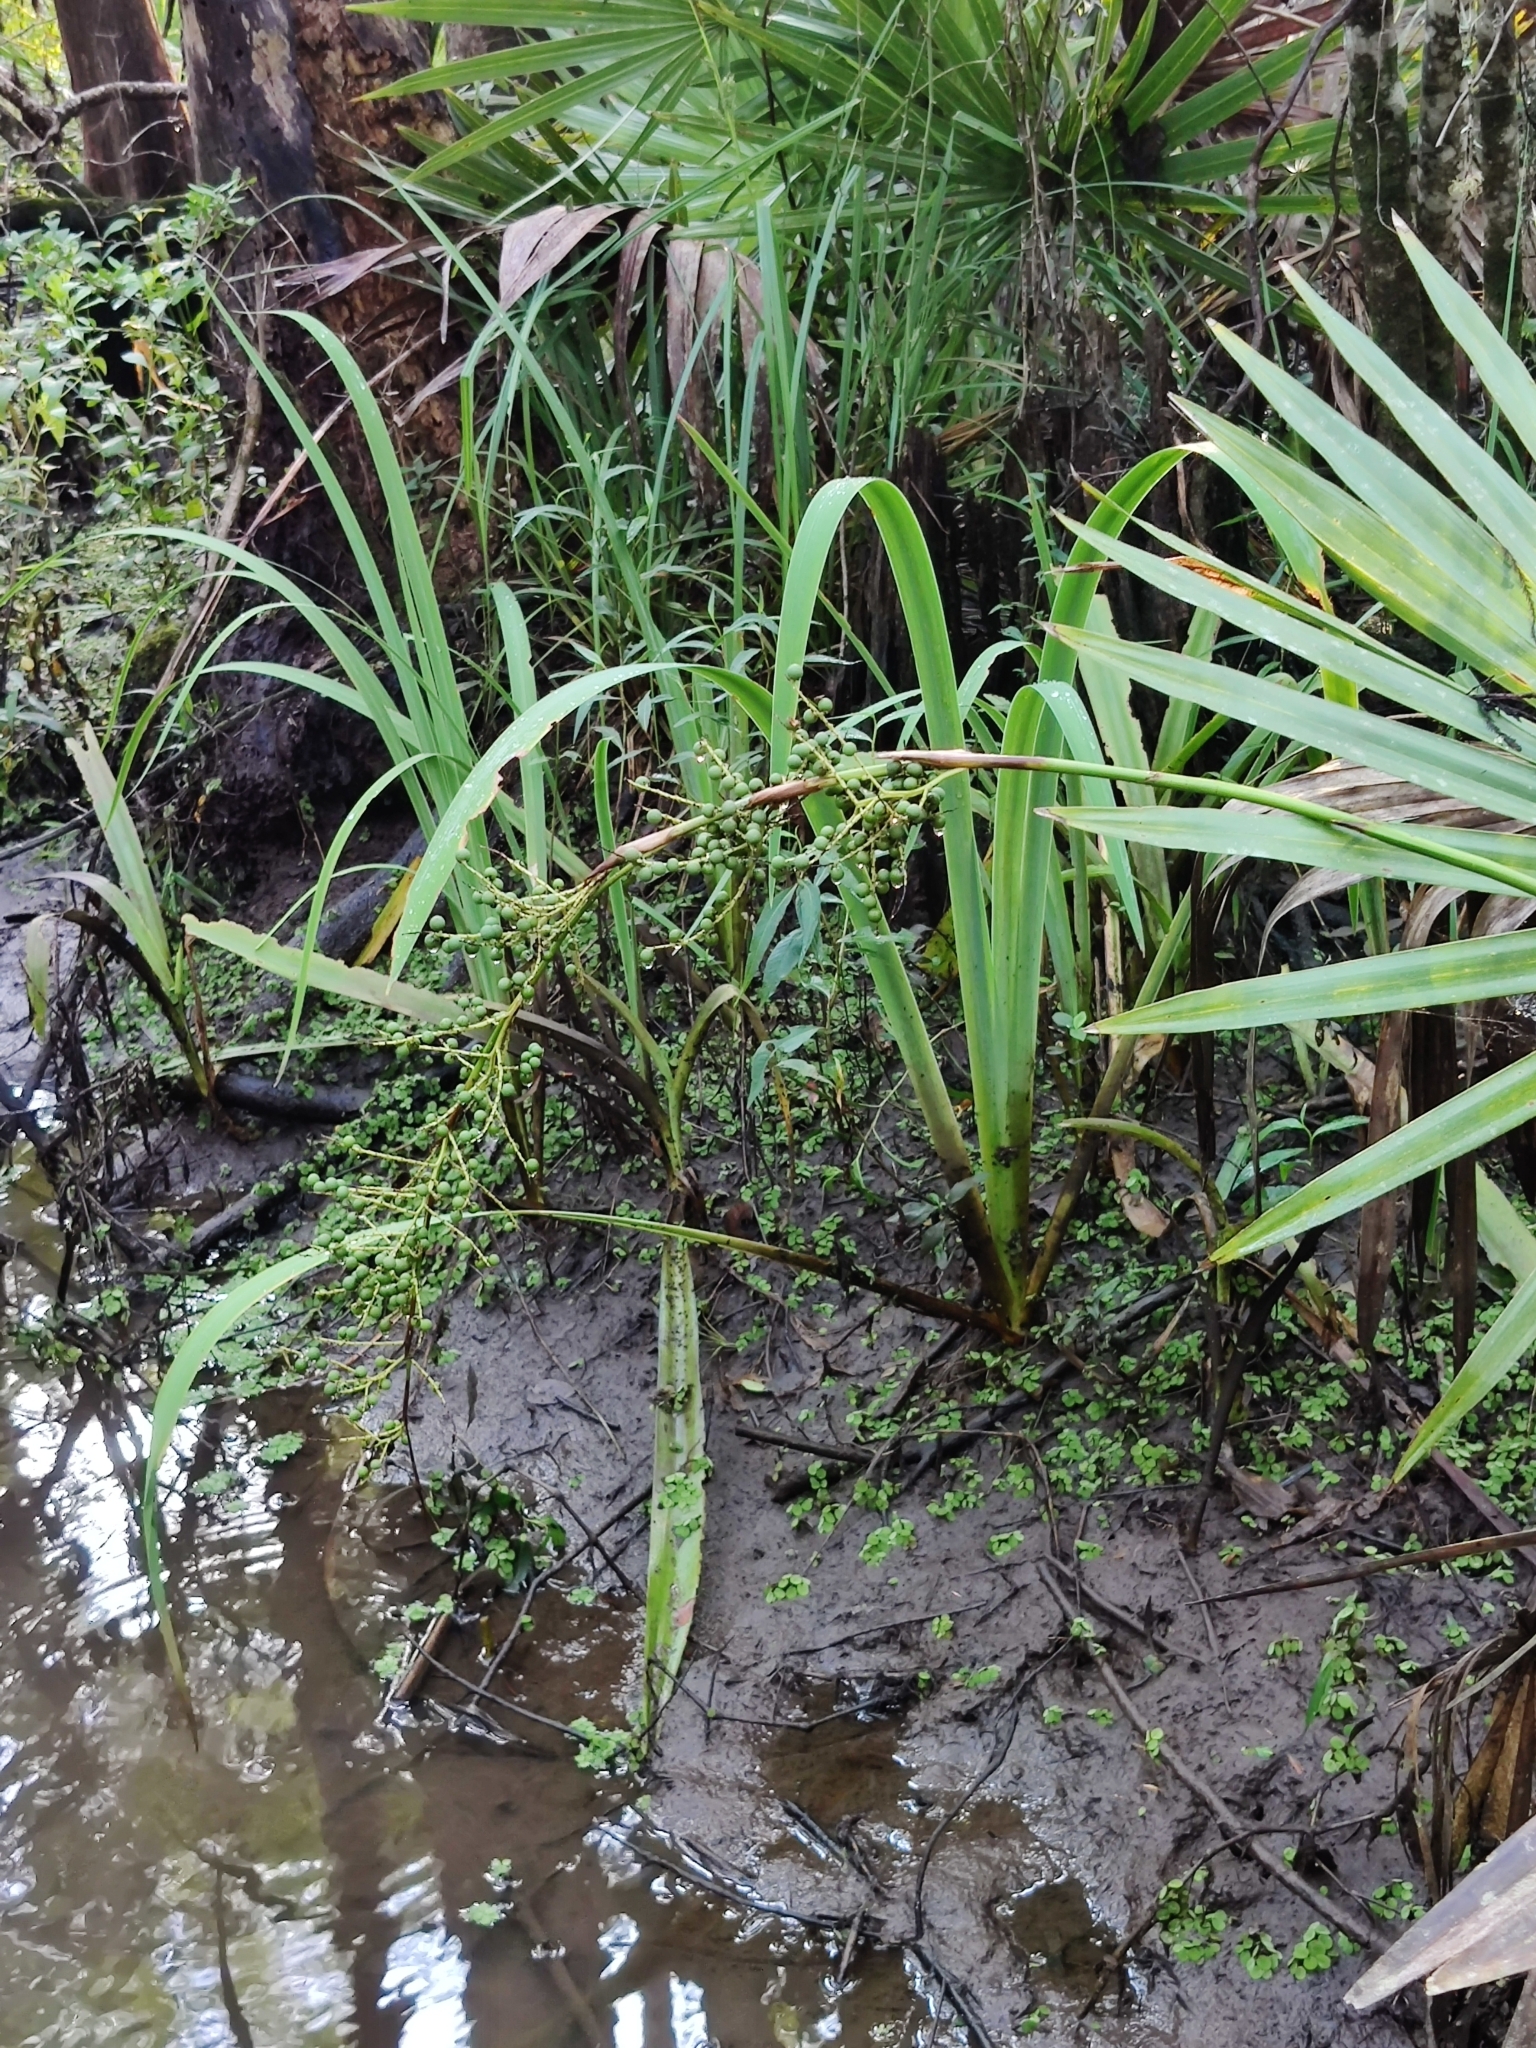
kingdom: Plantae
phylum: Tracheophyta
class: Liliopsida
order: Arecales
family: Arecaceae
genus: Sabal
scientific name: Sabal minor
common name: Dwarf palmetto
